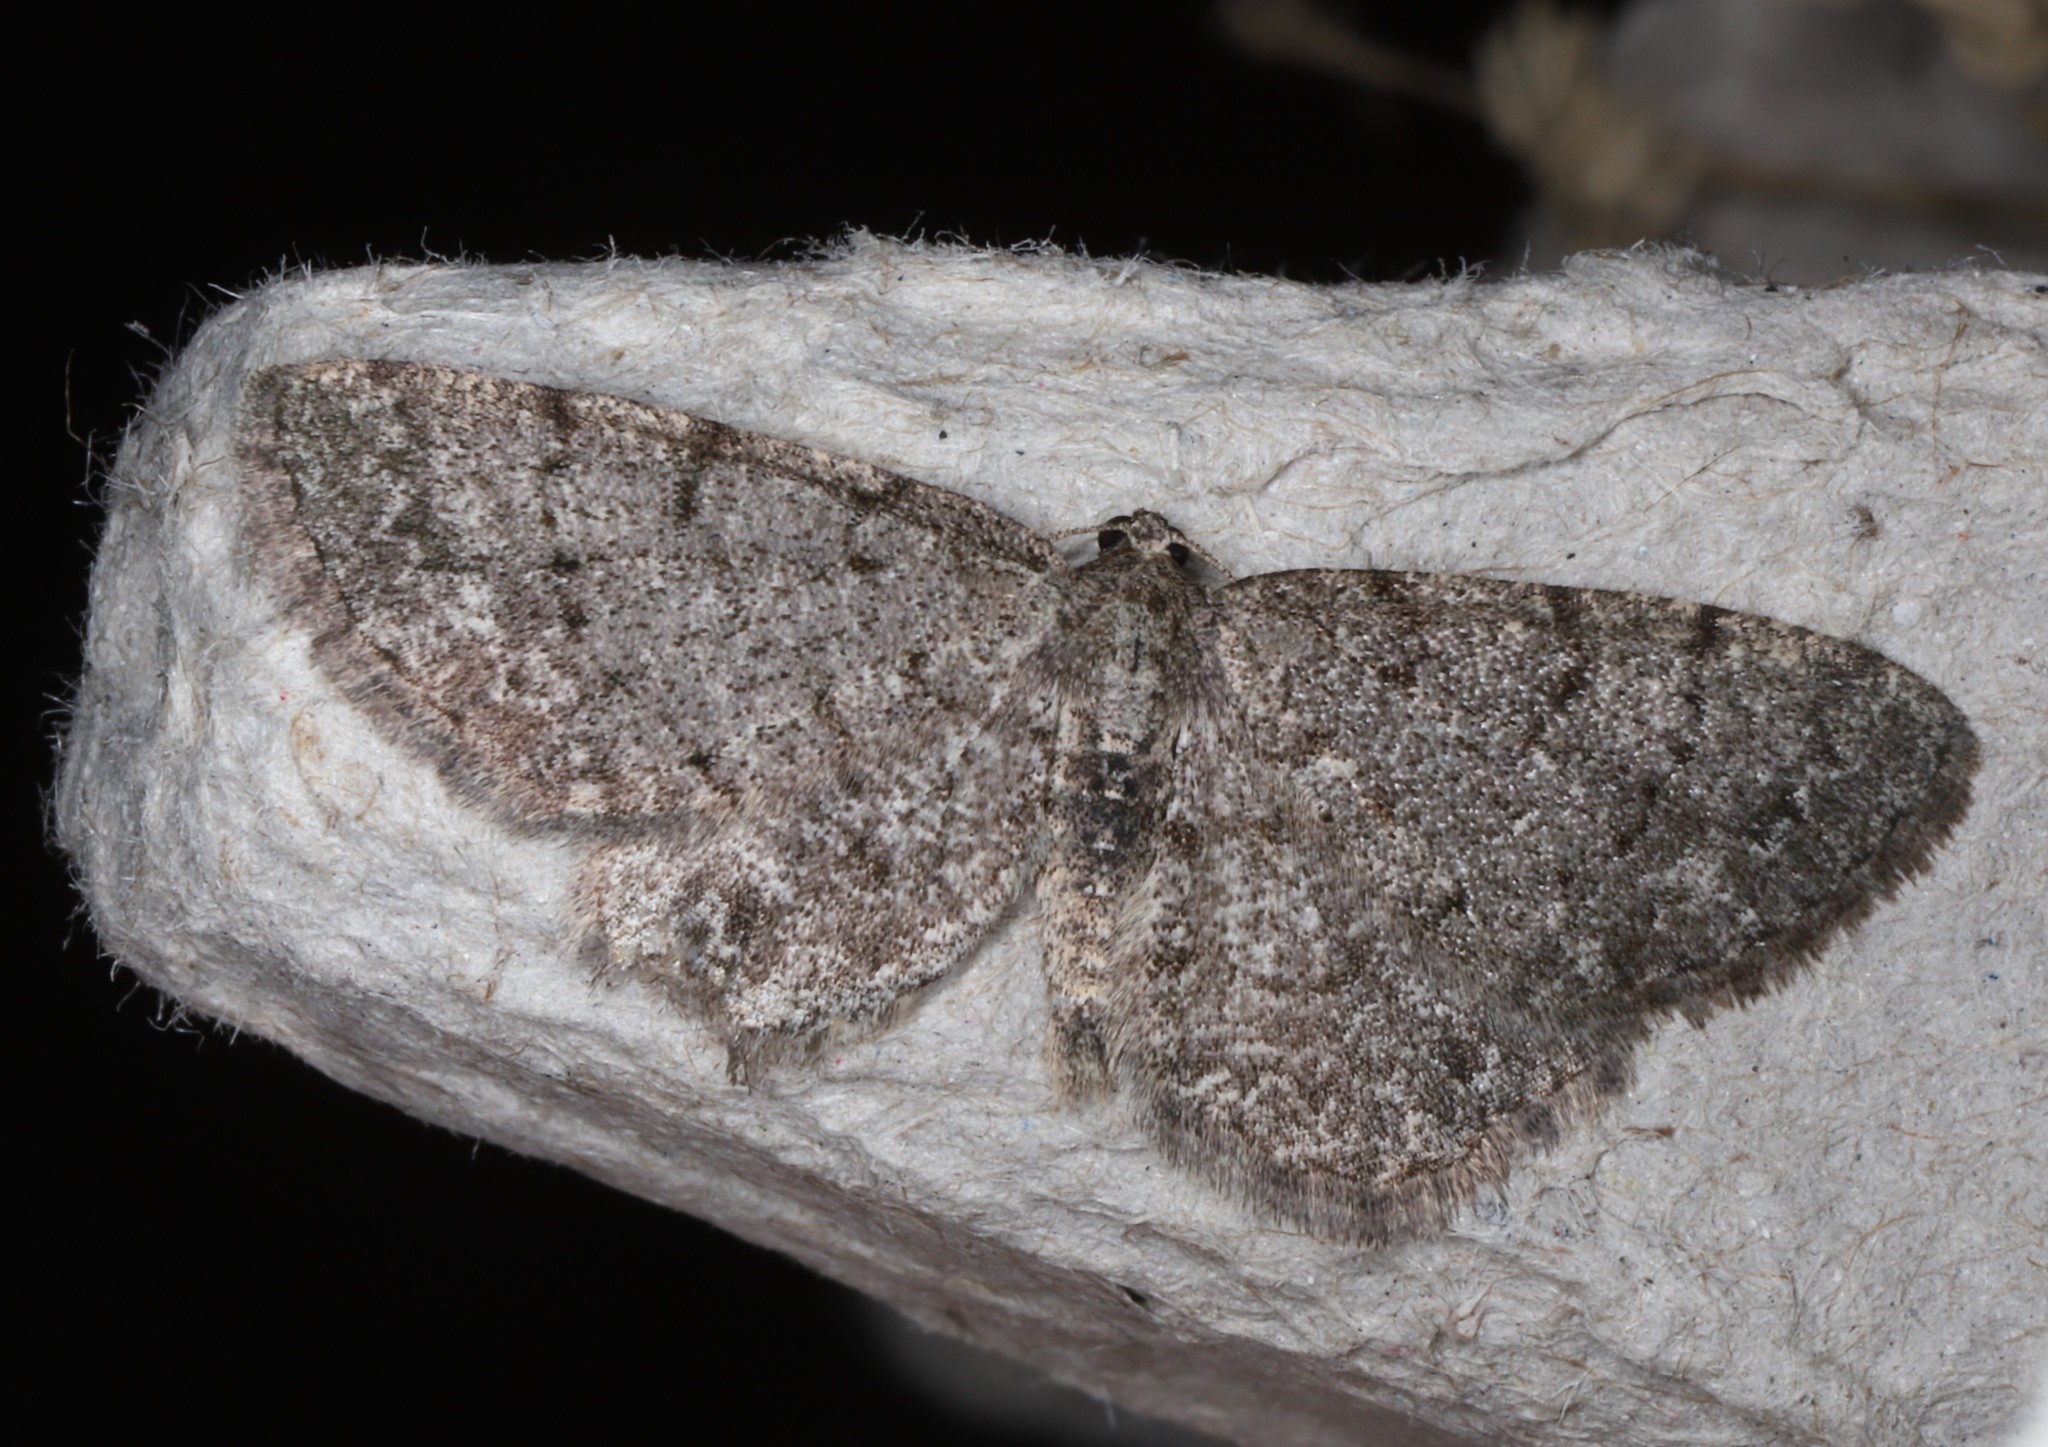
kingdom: Animalia
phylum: Arthropoda
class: Insecta
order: Lepidoptera
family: Geometridae
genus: Aethalura
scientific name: Aethalura intertexta
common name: Four-barred gray
